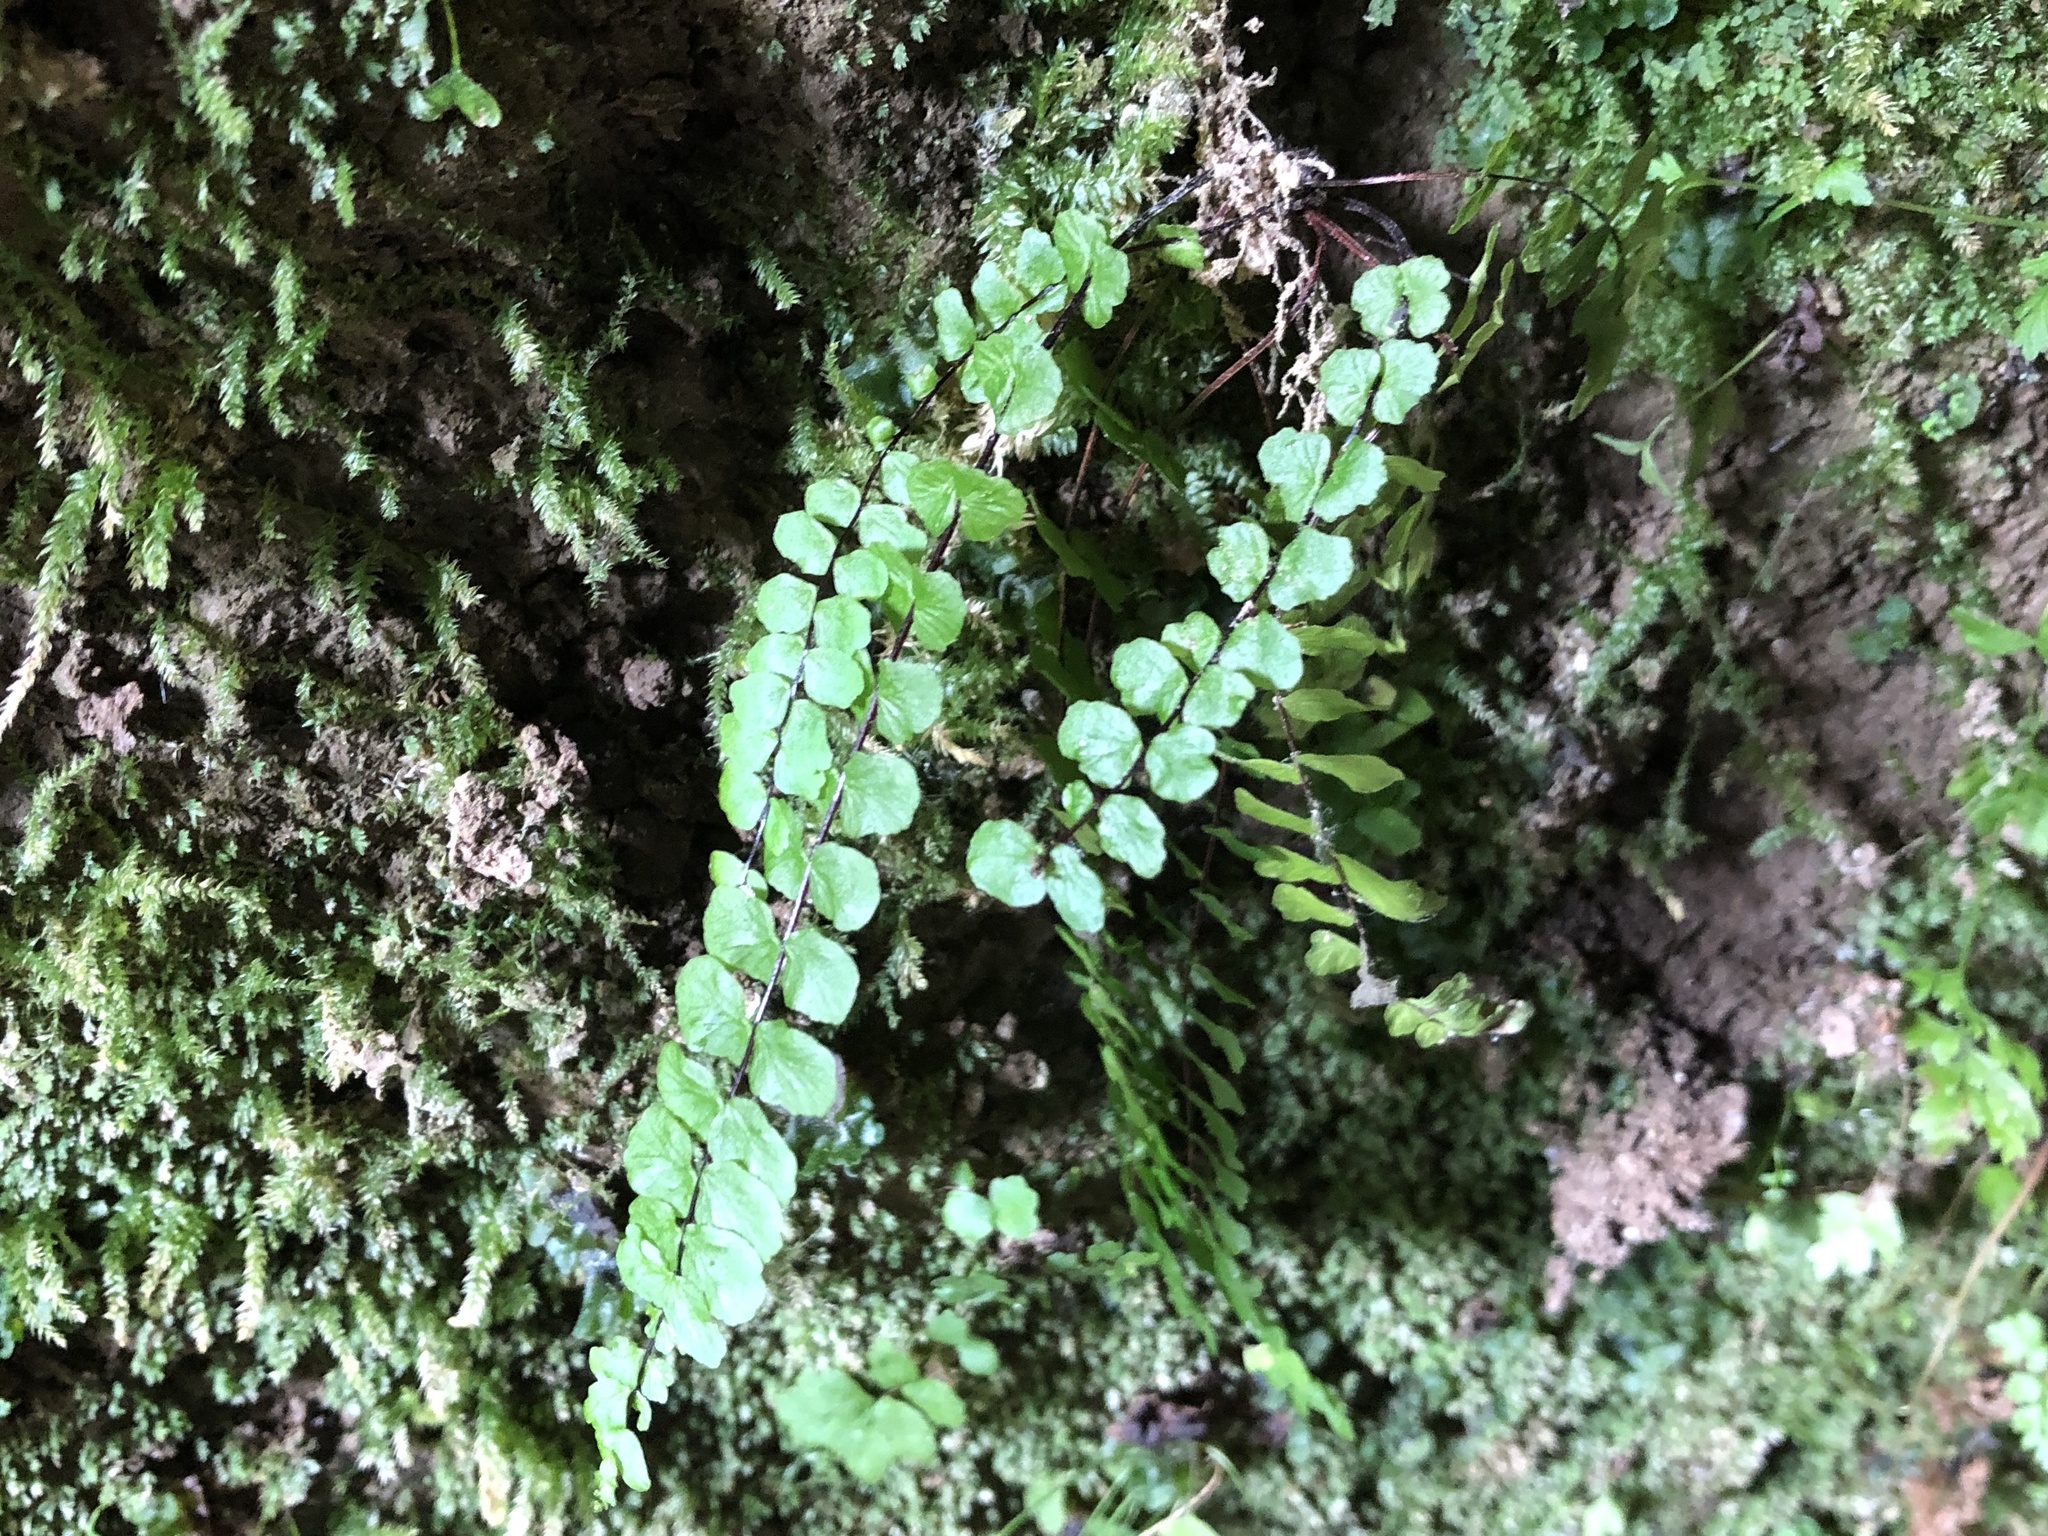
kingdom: Plantae
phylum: Tracheophyta
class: Polypodiopsida
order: Polypodiales
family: Aspleniaceae
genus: Asplenium
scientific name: Asplenium trichomanes
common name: Maidenhair spleenwort
